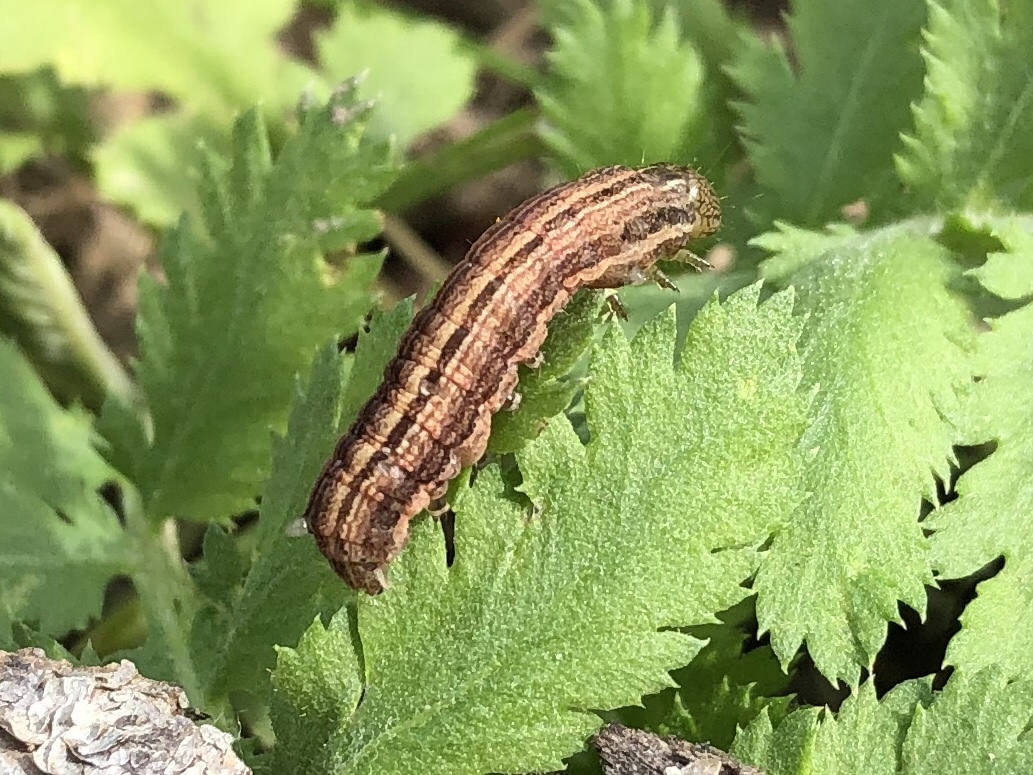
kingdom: Animalia
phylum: Arthropoda
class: Insecta
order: Lepidoptera
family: Noctuidae
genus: Mythimna
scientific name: Mythimna ferrago
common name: Clay
